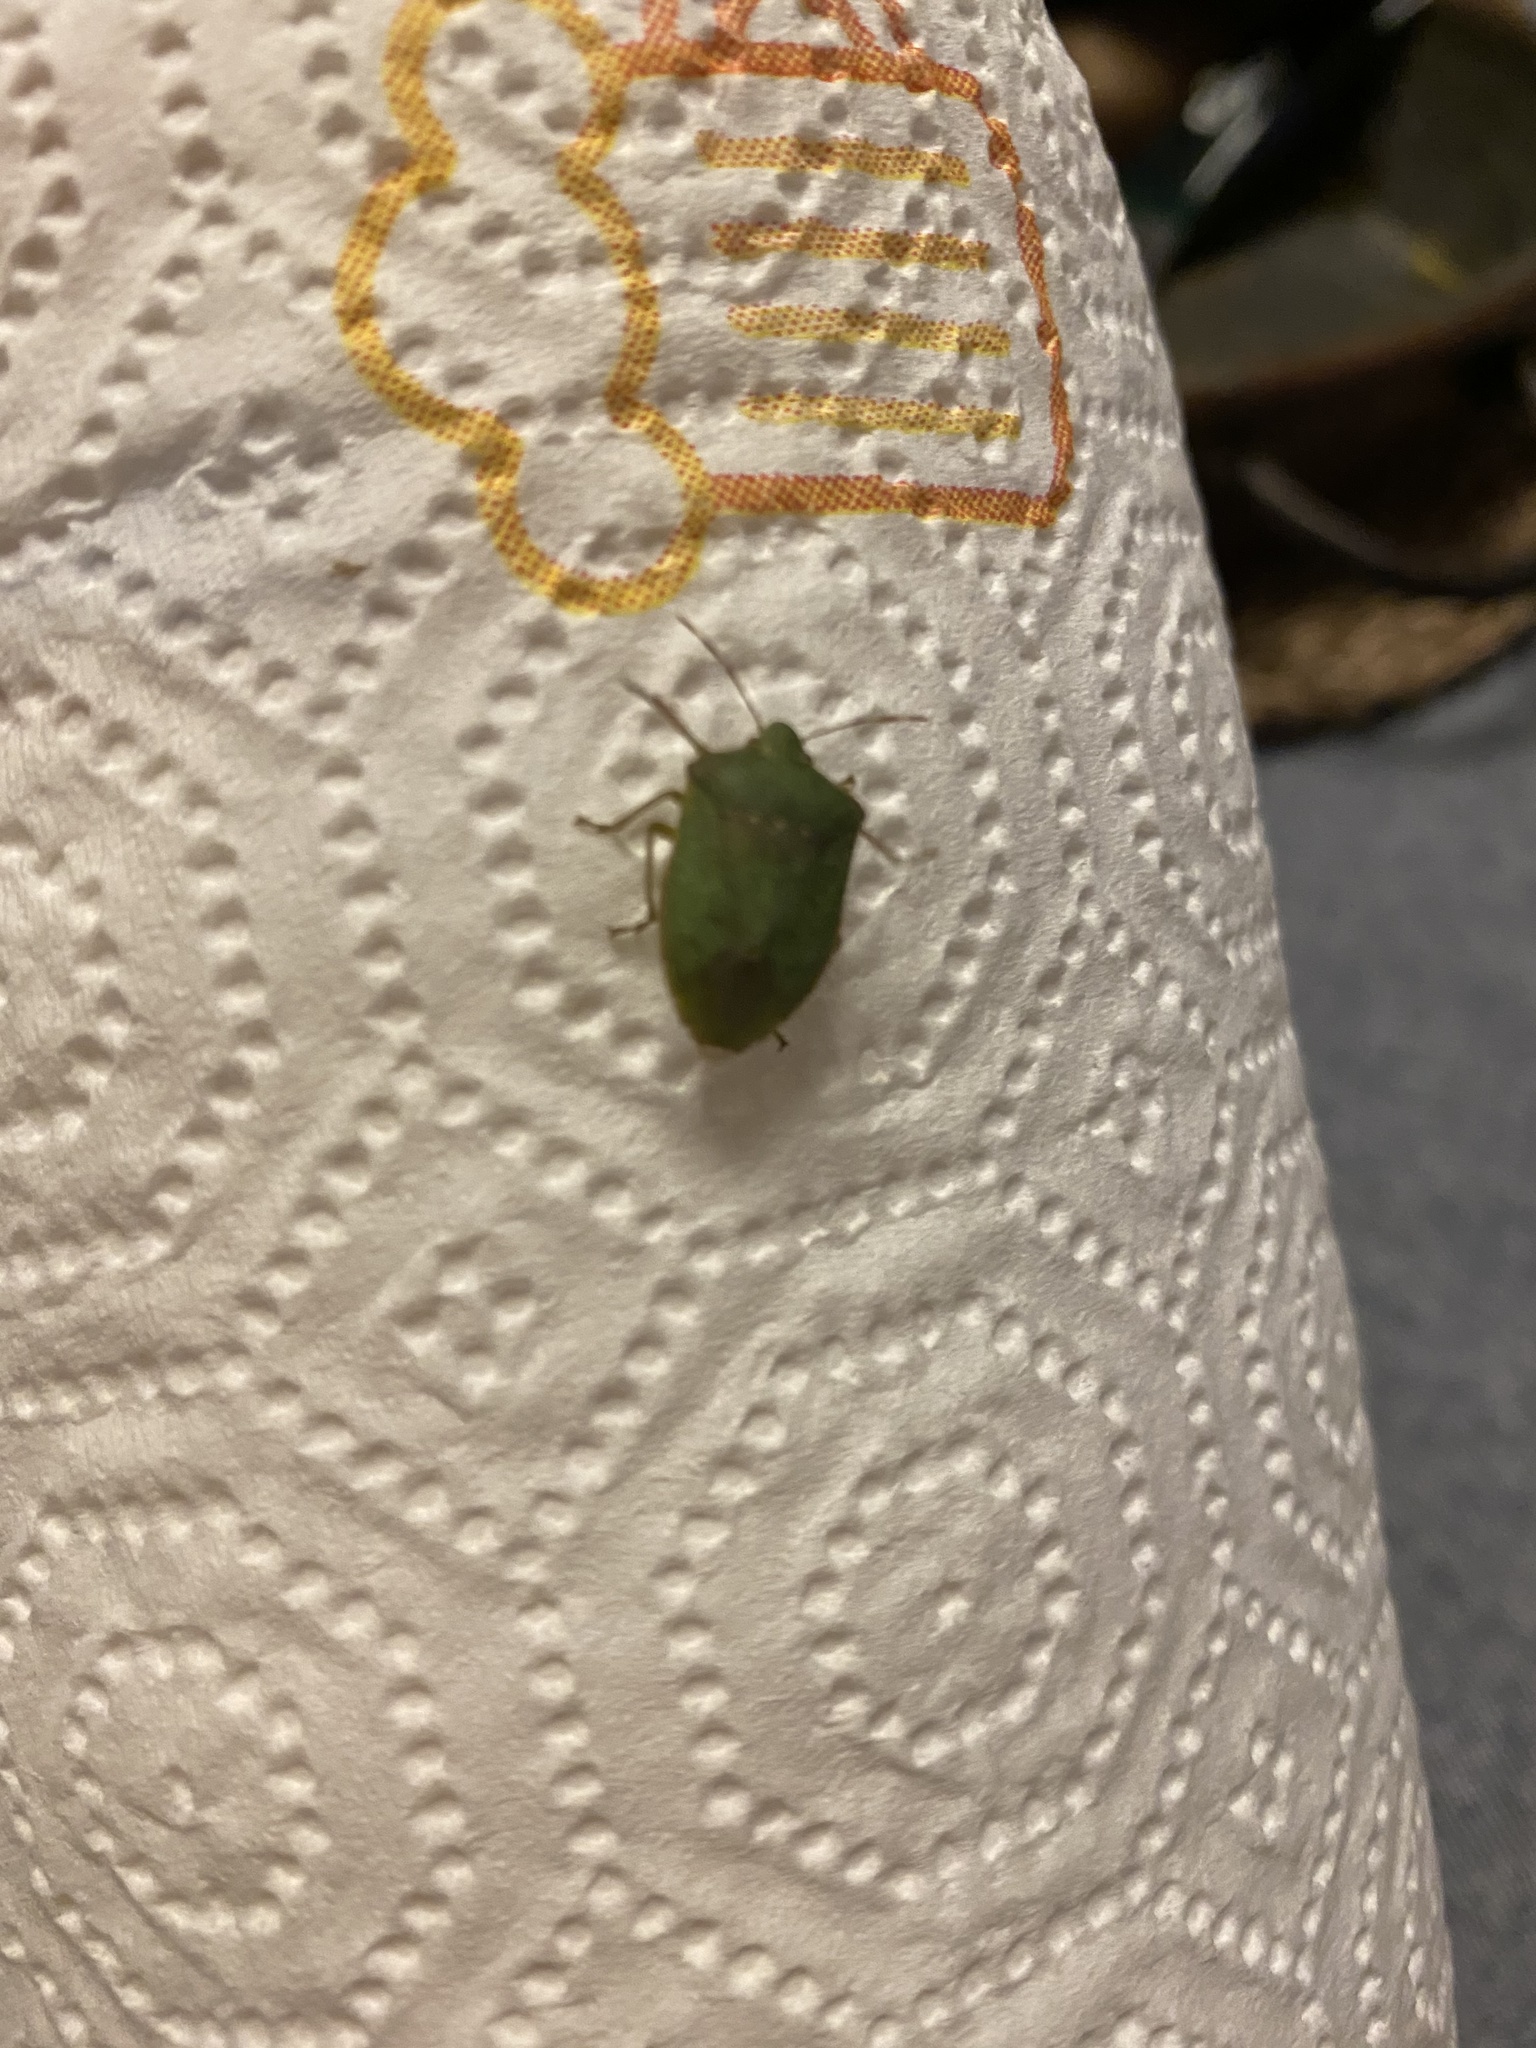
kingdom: Animalia
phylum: Arthropoda
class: Insecta
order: Hemiptera
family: Pentatomidae
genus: Nezara
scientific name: Nezara viridula
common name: Southern green stink bug
